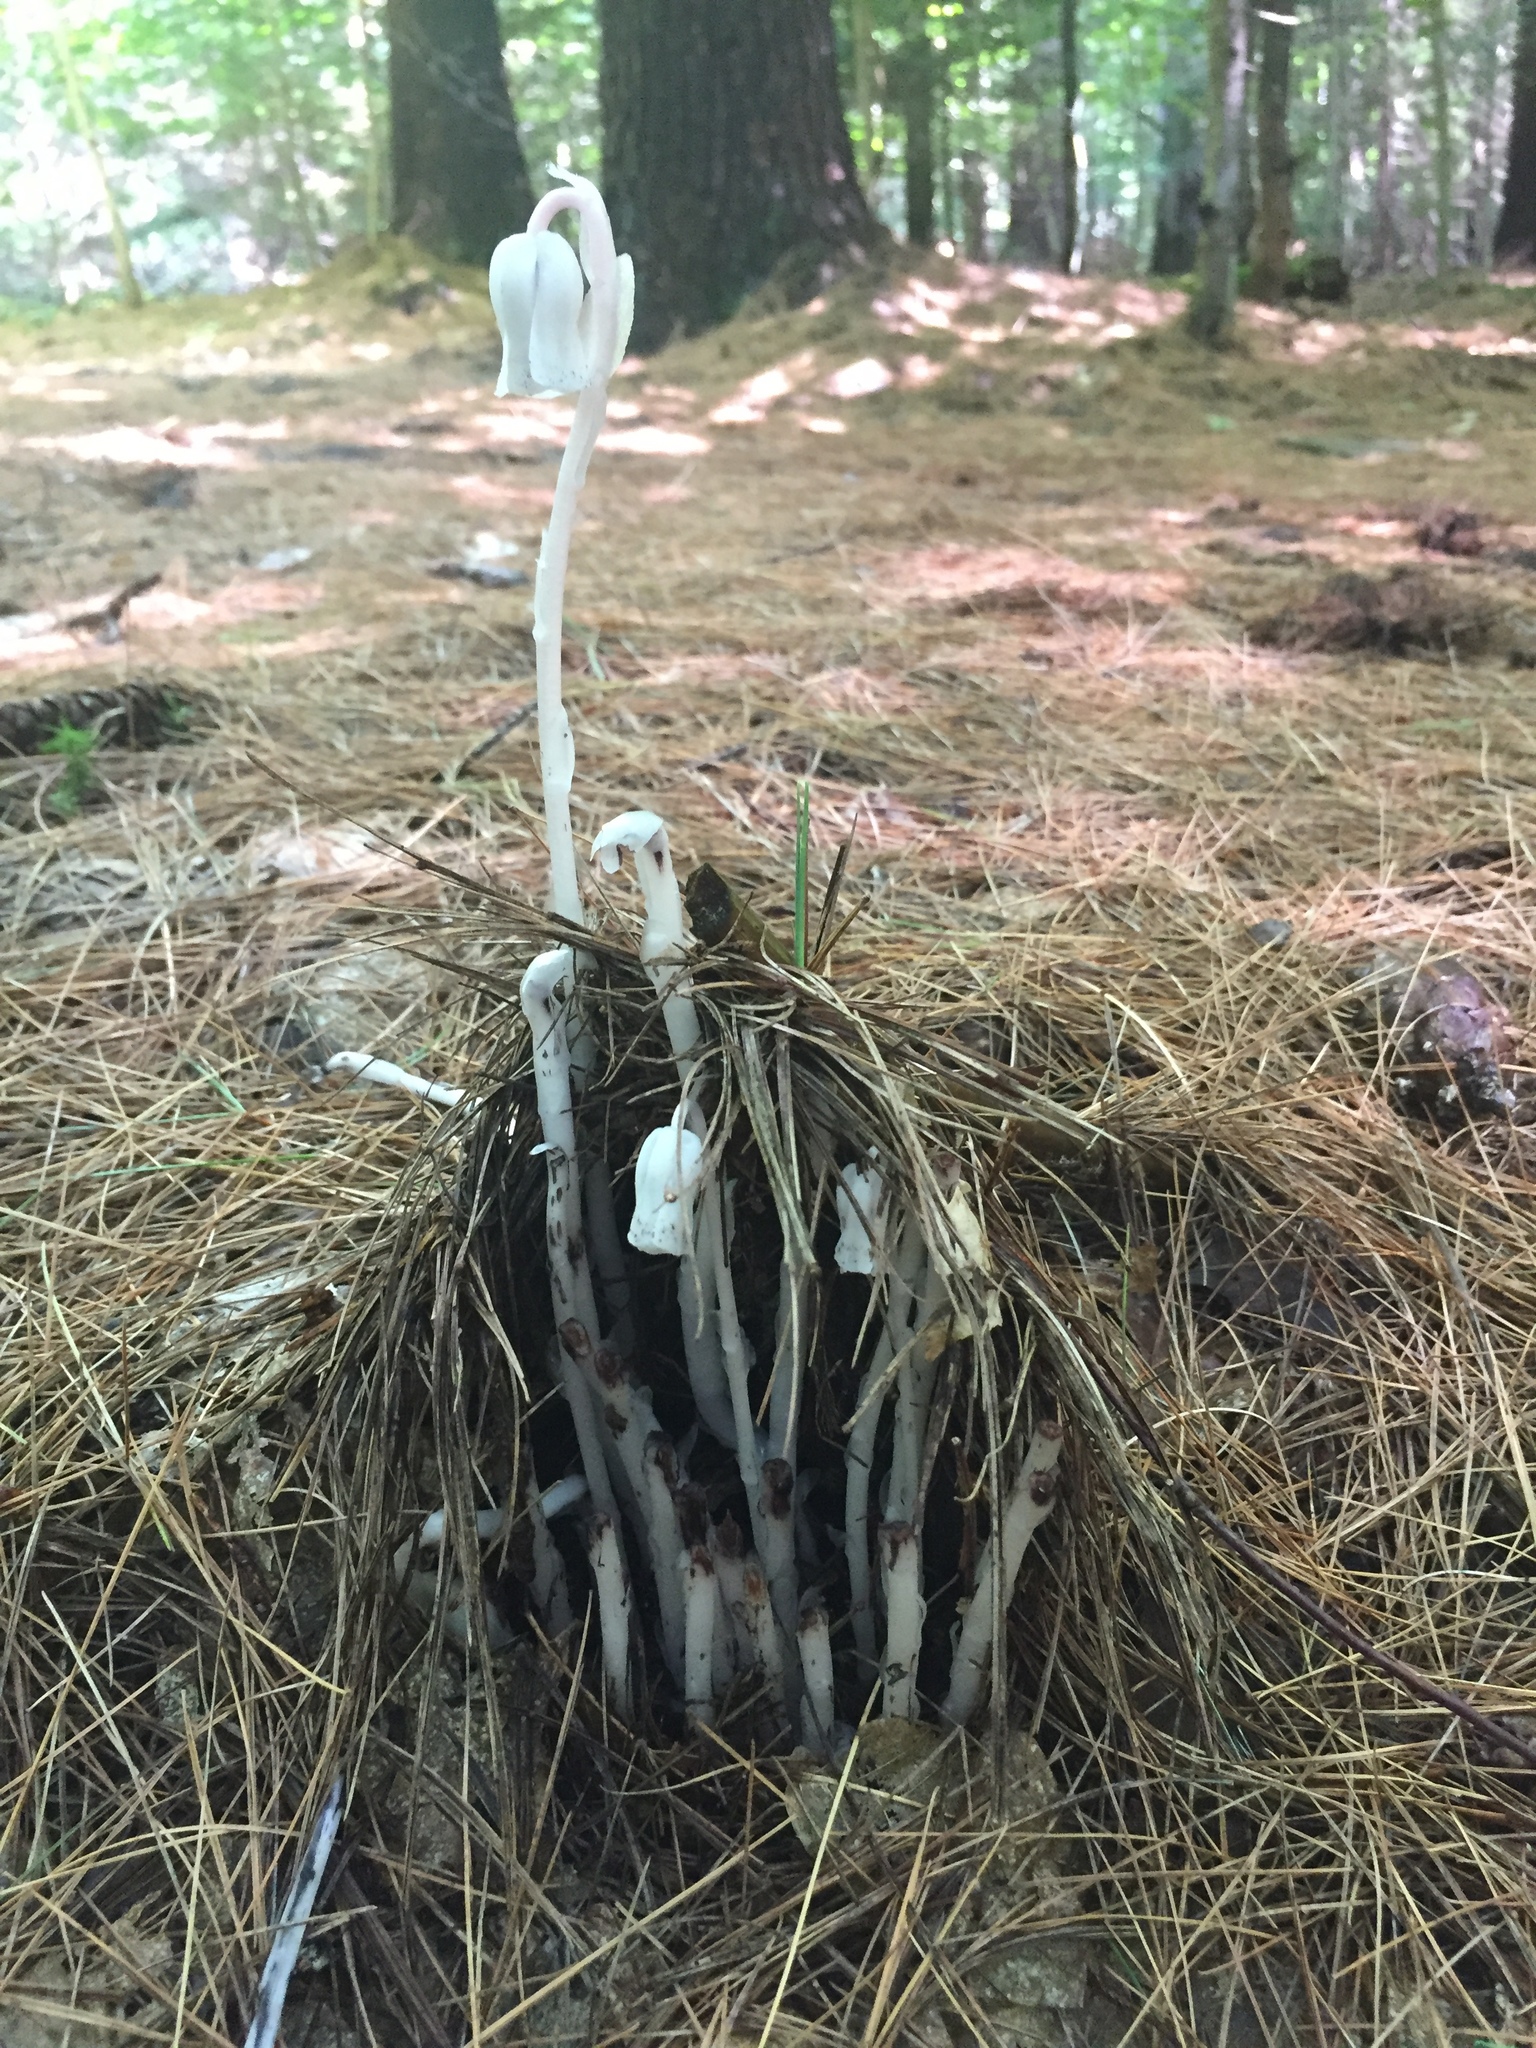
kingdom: Plantae
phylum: Tracheophyta
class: Magnoliopsida
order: Ericales
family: Ericaceae
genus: Monotropa
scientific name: Monotropa uniflora
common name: Convulsion root
